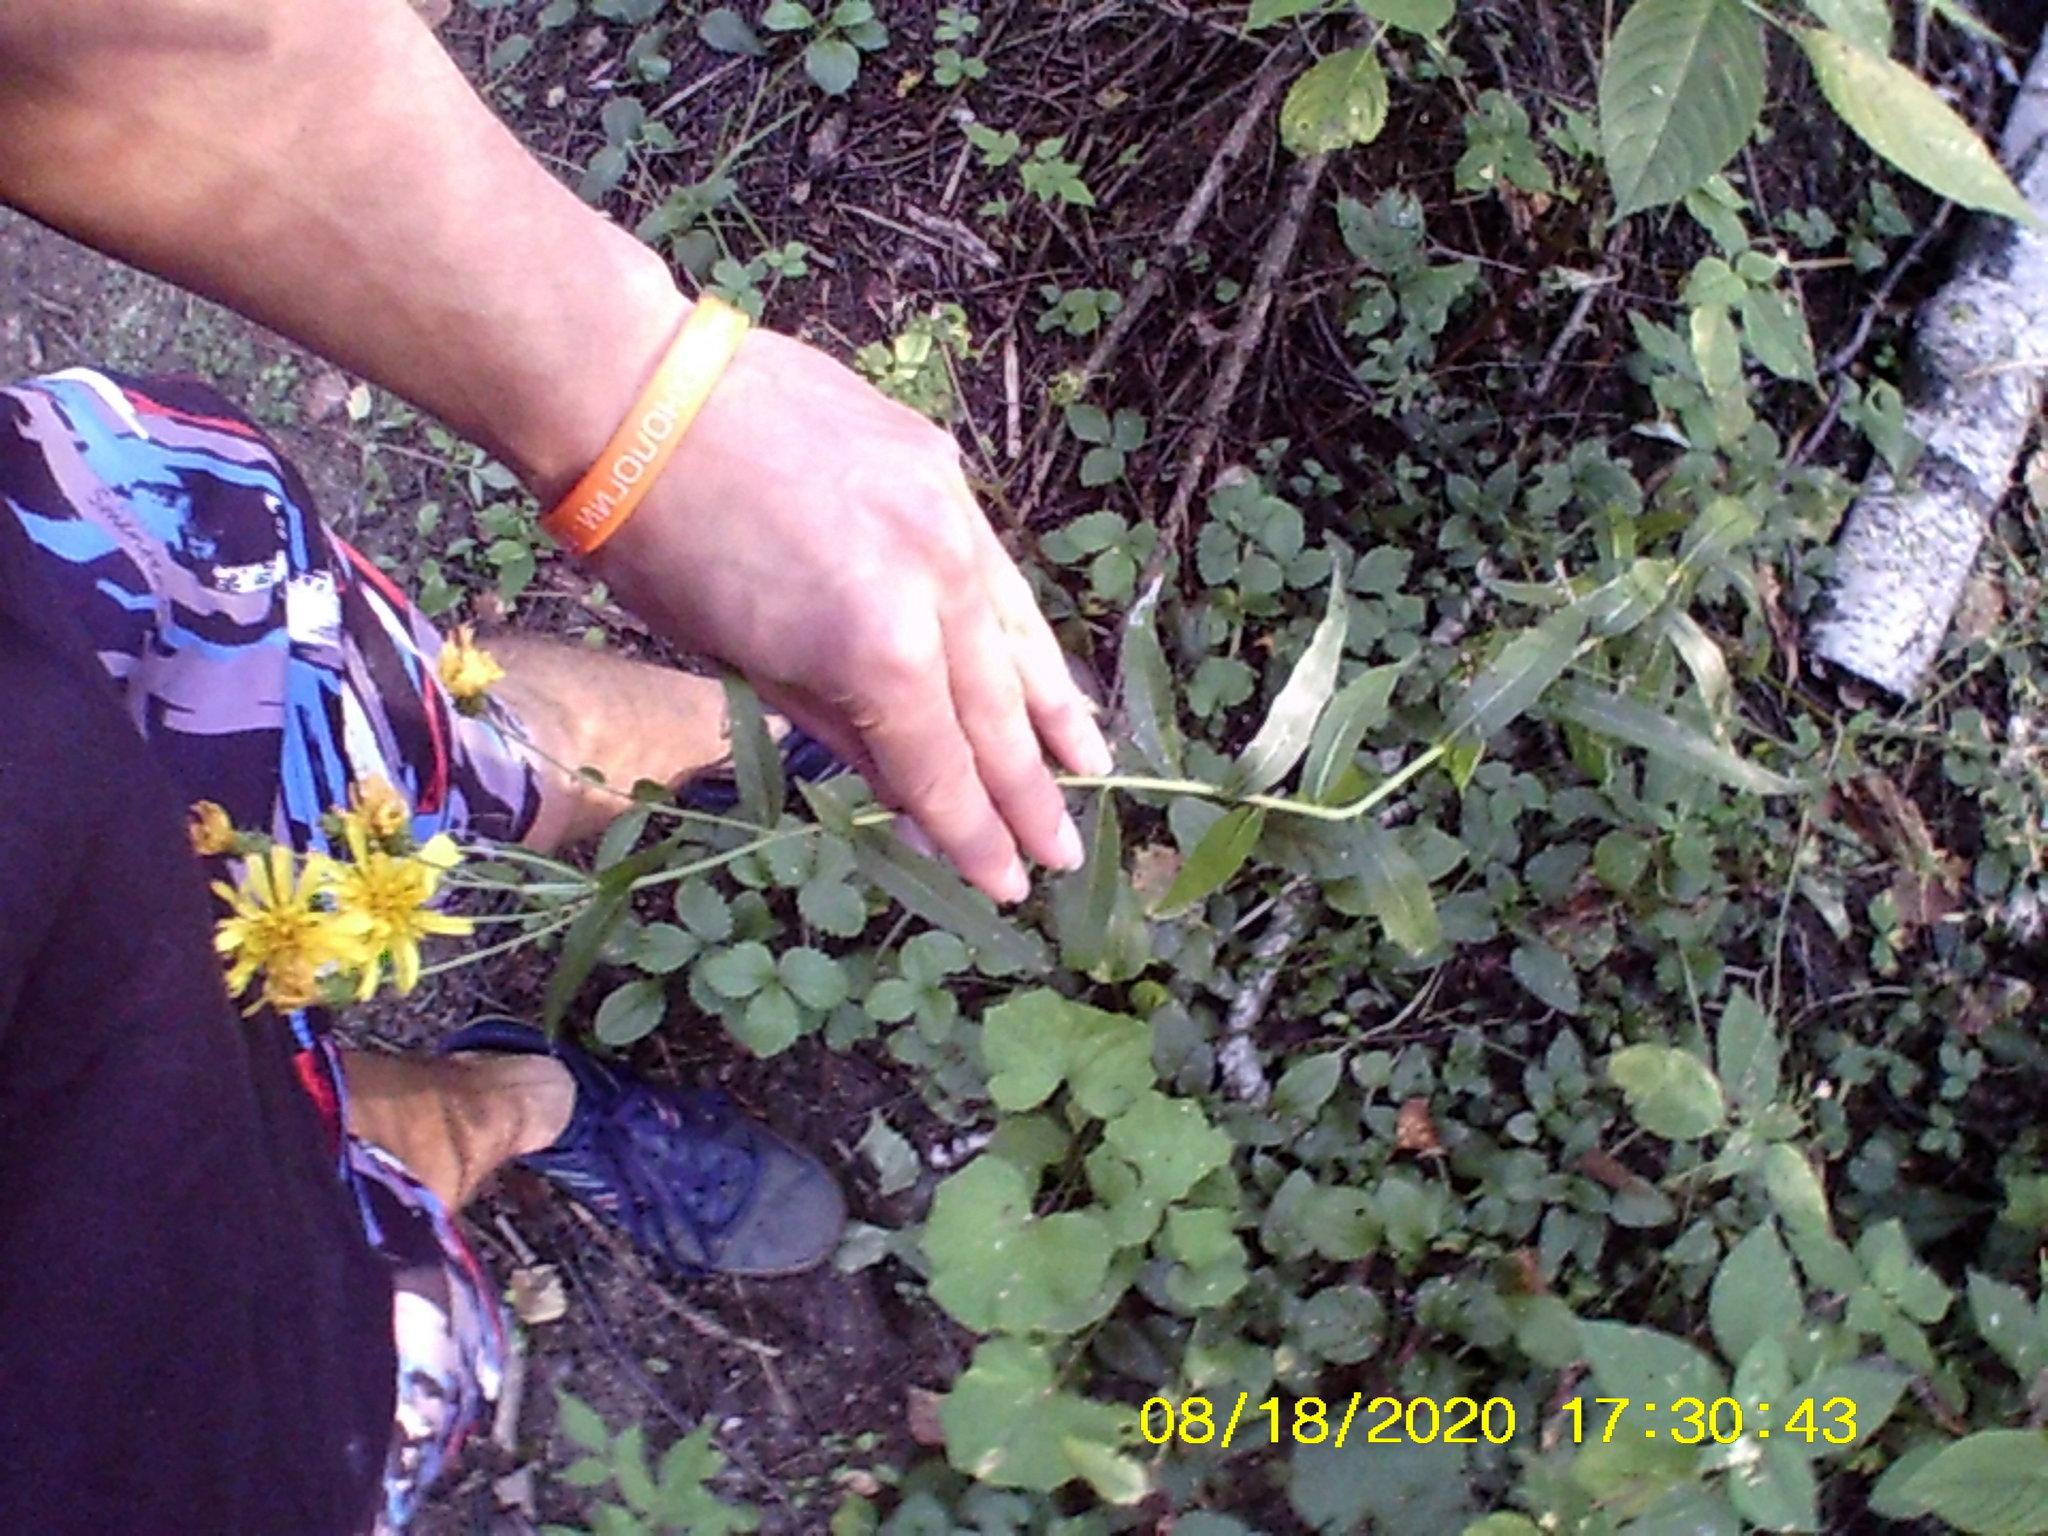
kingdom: Plantae
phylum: Tracheophyta
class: Magnoliopsida
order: Asterales
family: Asteraceae
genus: Hieracium
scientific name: Hieracium umbellatum
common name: Northern hawkweed
